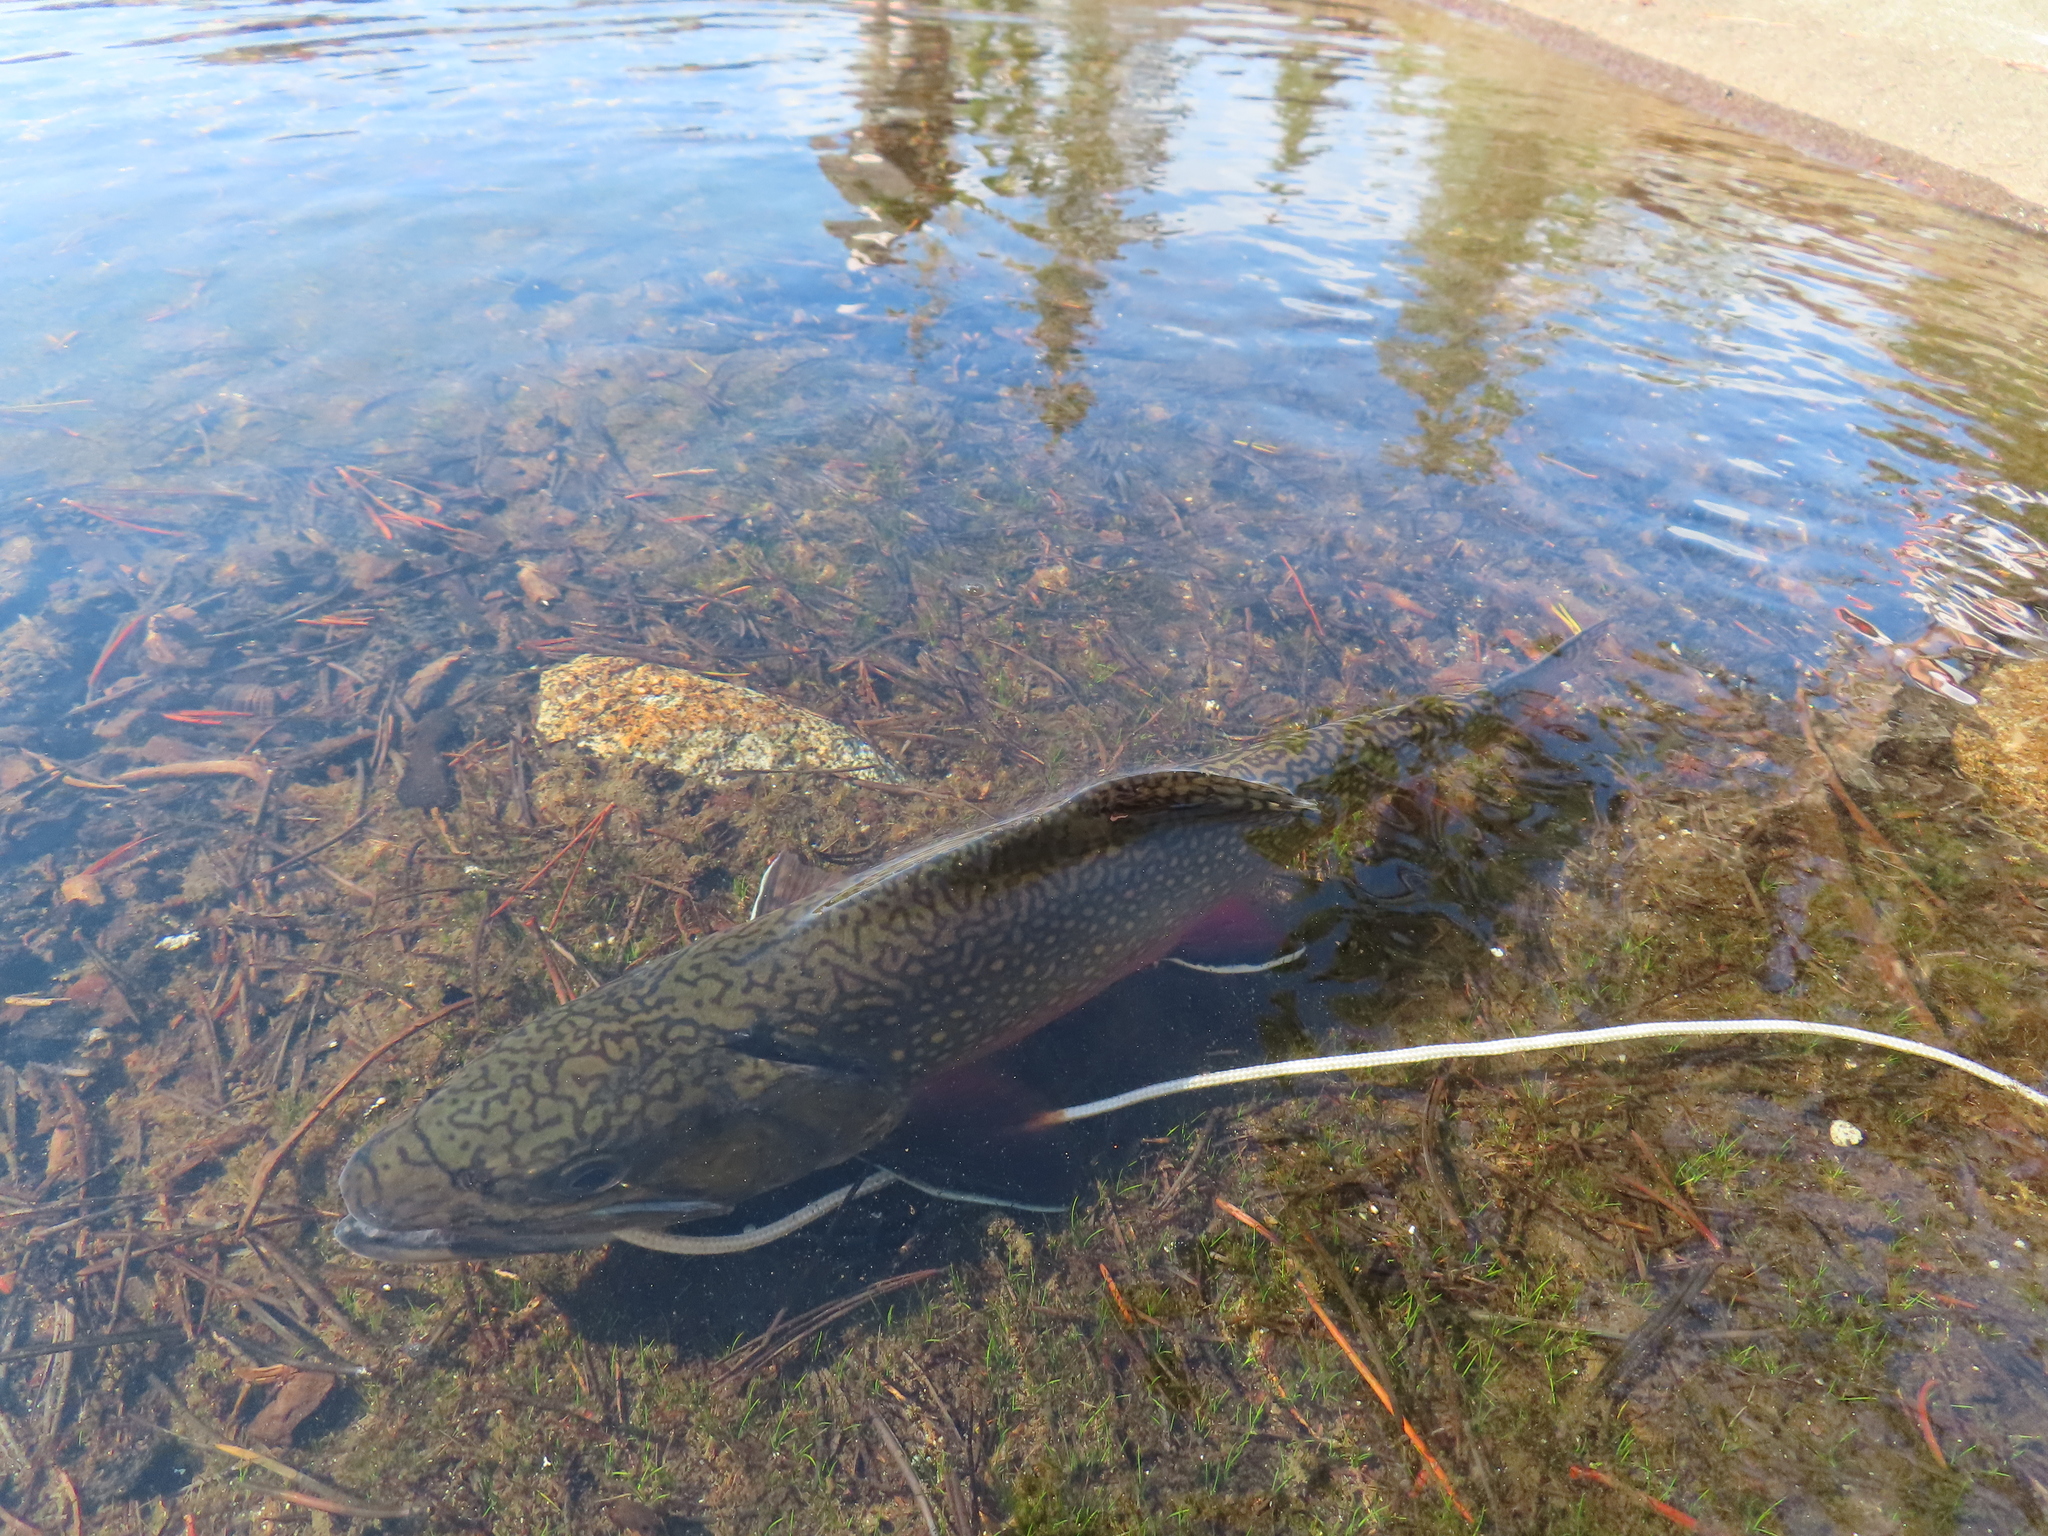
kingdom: Animalia
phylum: Chordata
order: Salmoniformes
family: Salmonidae
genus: Salvelinus
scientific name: Salvelinus fontinalis
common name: Brook trout
